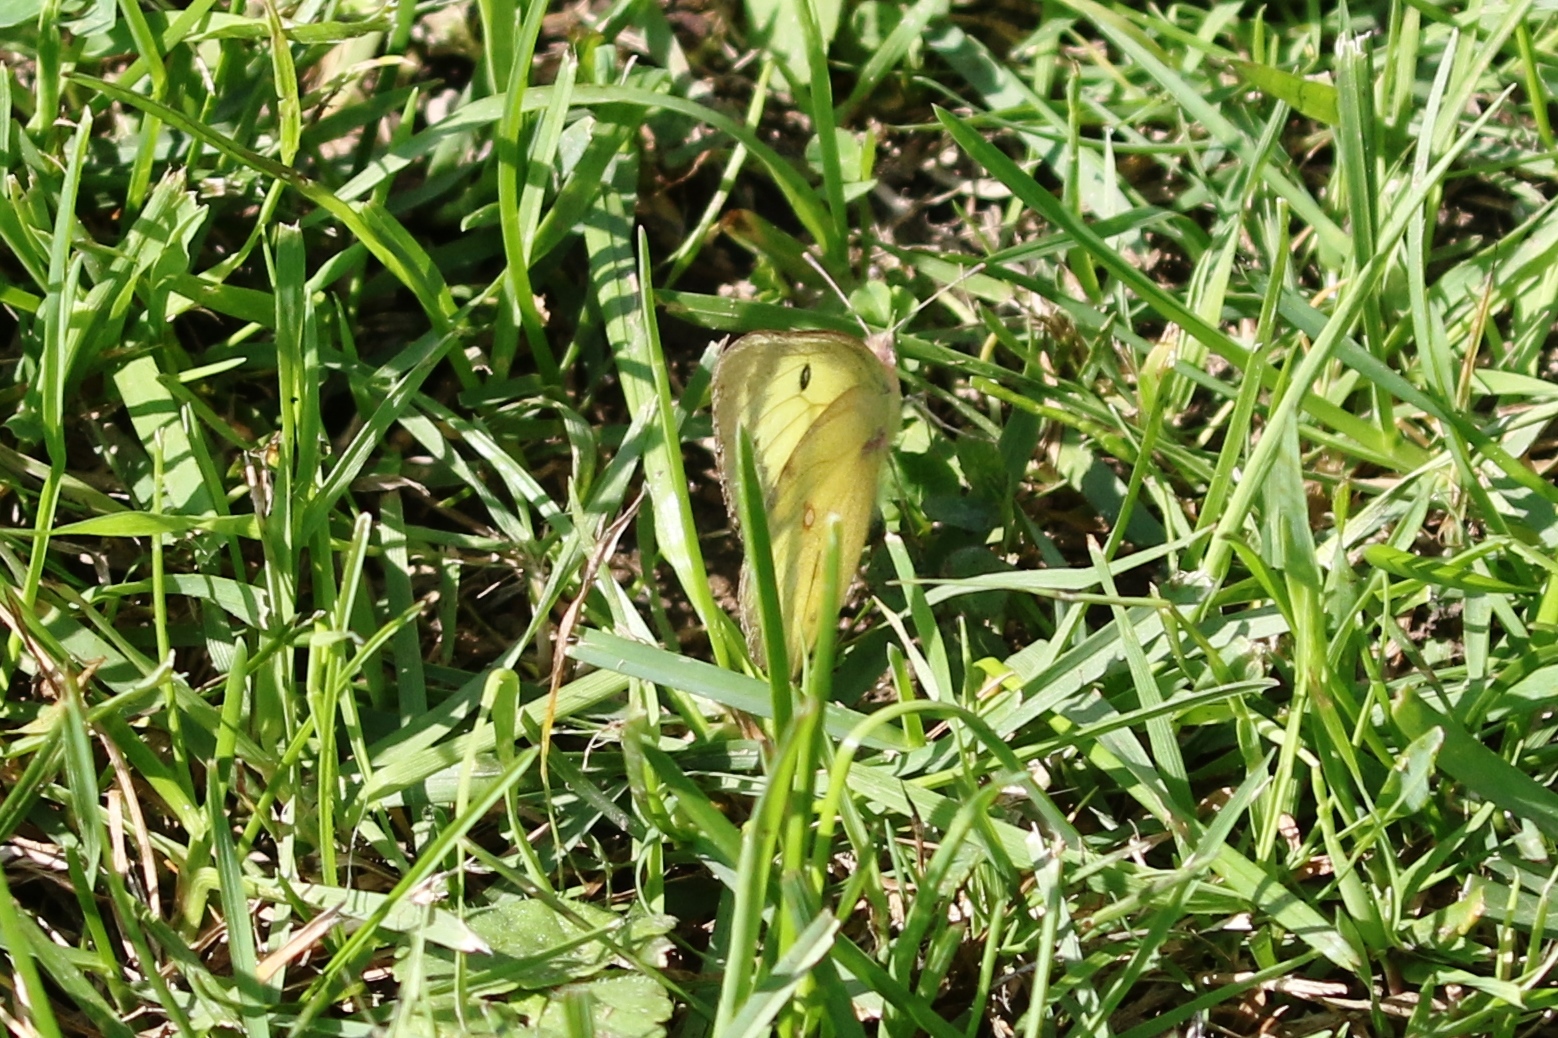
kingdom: Animalia
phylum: Arthropoda
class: Insecta
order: Lepidoptera
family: Pieridae
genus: Colias
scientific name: Colias philodice
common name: Clouded sulphur
